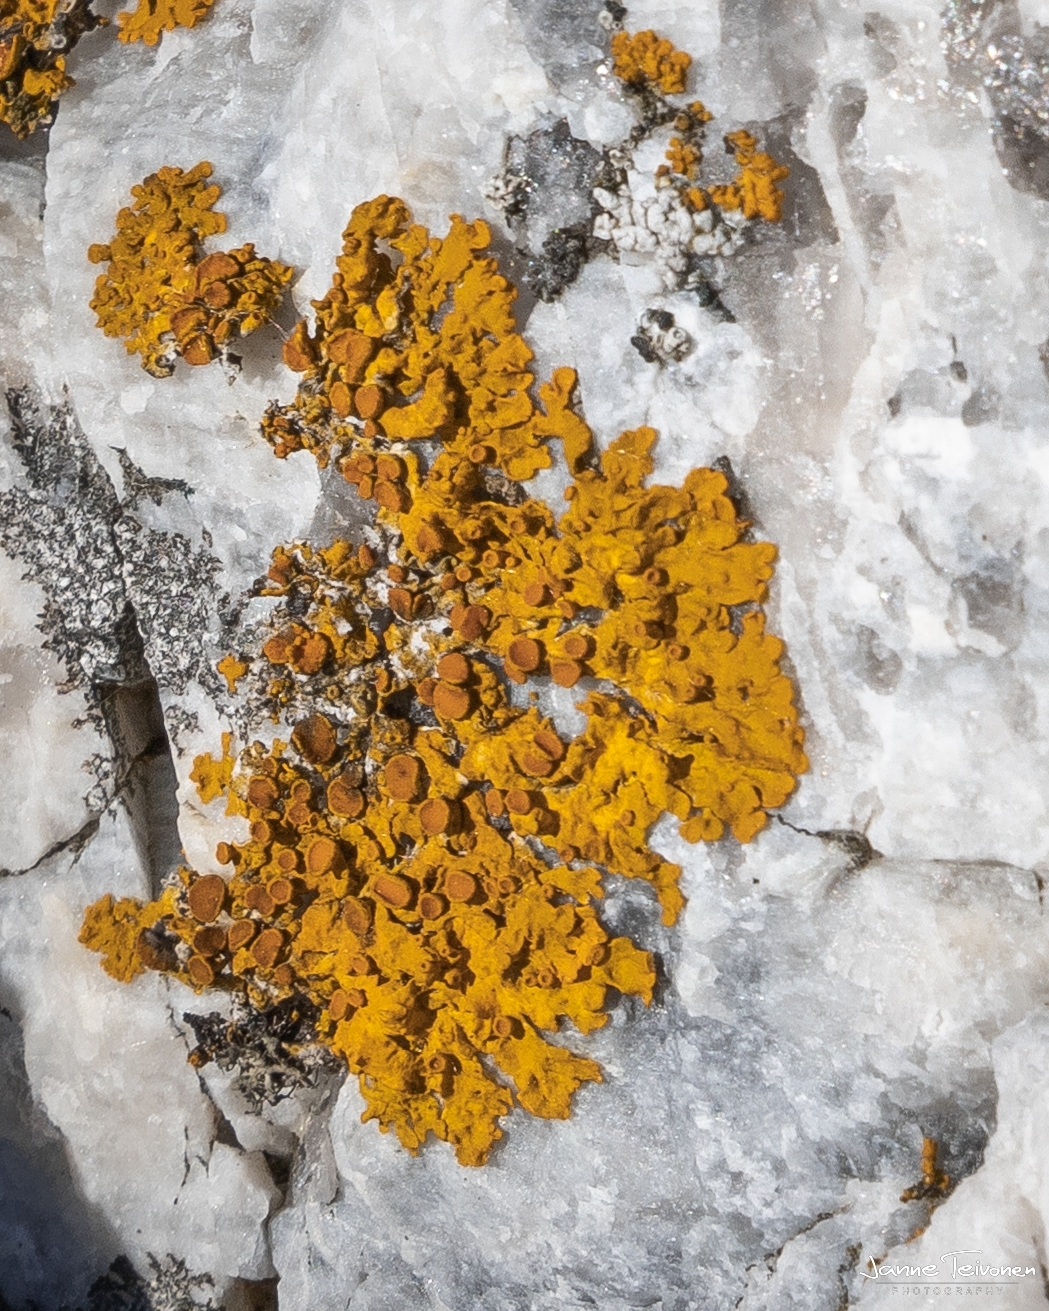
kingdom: Fungi
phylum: Ascomycota
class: Lecanoromycetes
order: Teloschistales
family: Teloschistaceae
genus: Xanthoria
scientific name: Xanthoria parietina
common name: Common orange lichen
